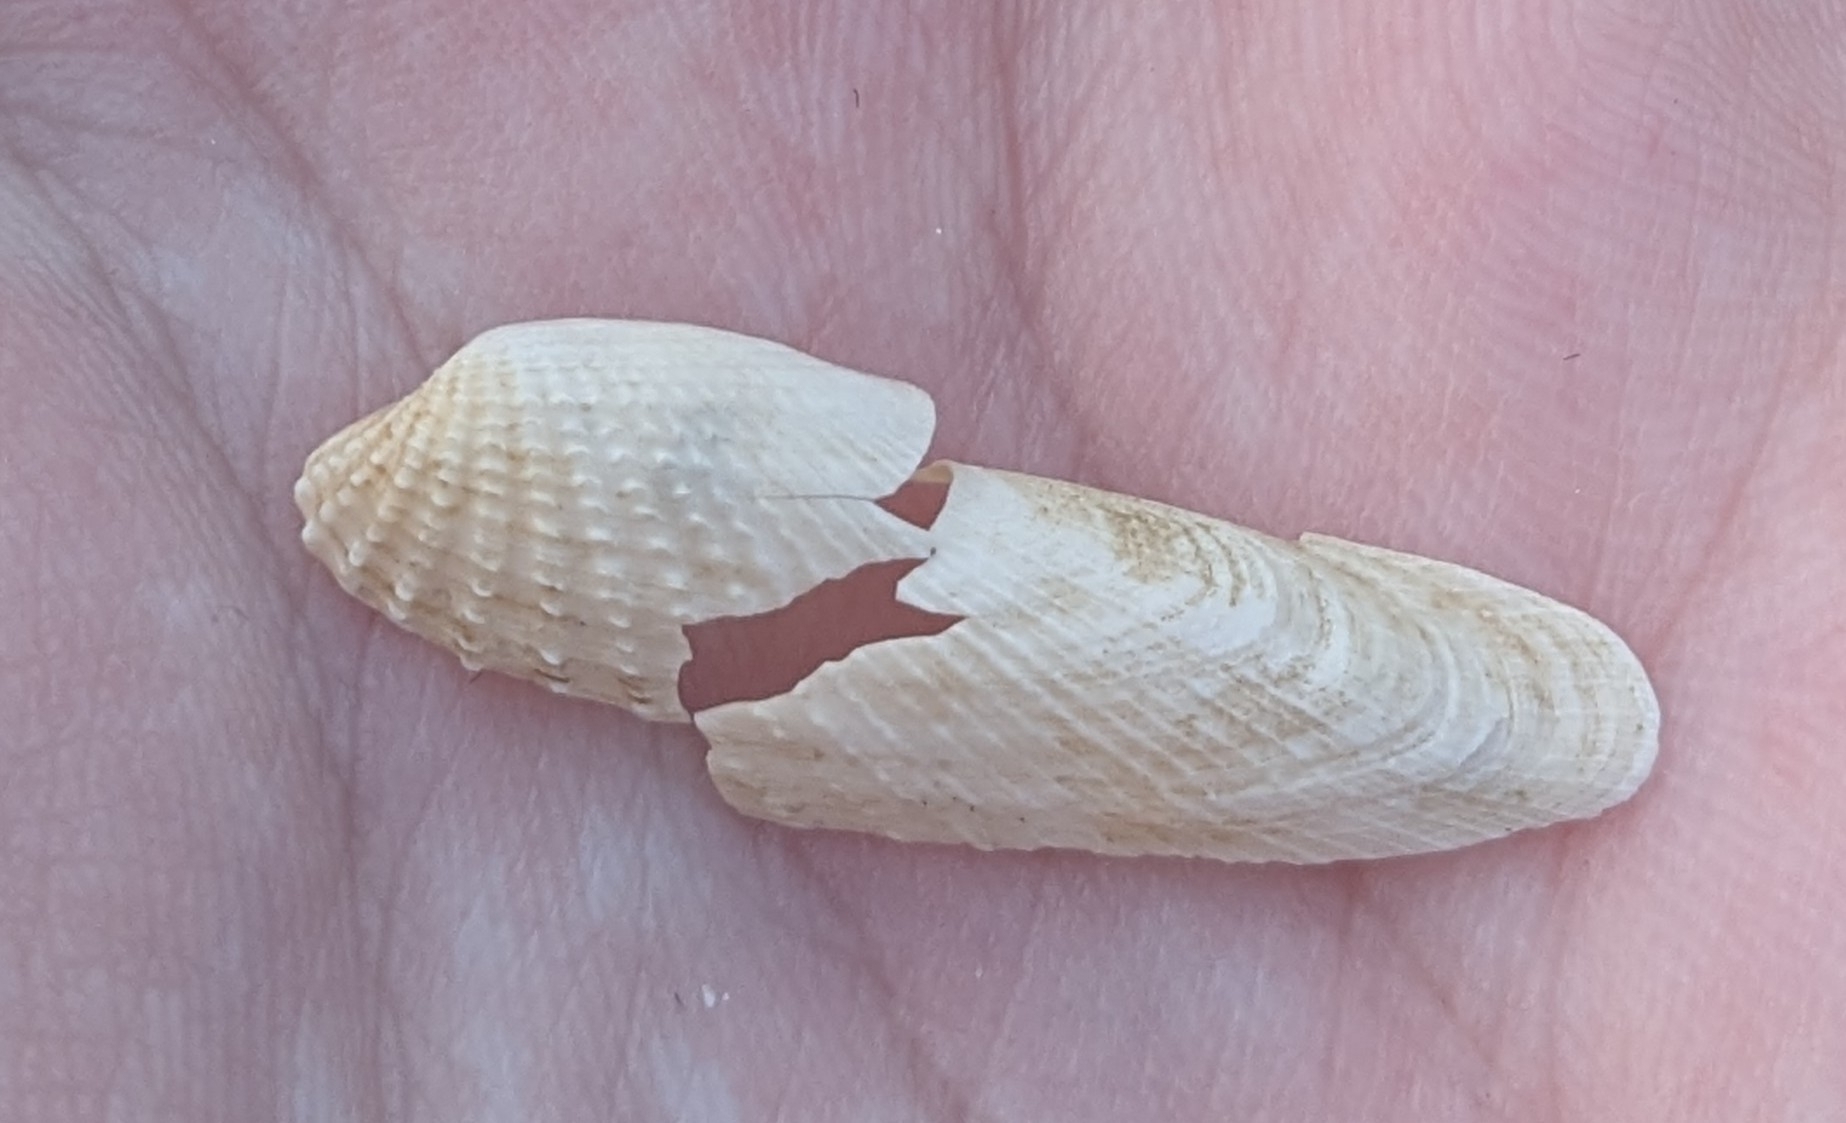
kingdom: Animalia
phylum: Mollusca
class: Bivalvia
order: Venerida
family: Veneridae
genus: Petricolaria
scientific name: Petricolaria pholadiformis
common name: American piddock
